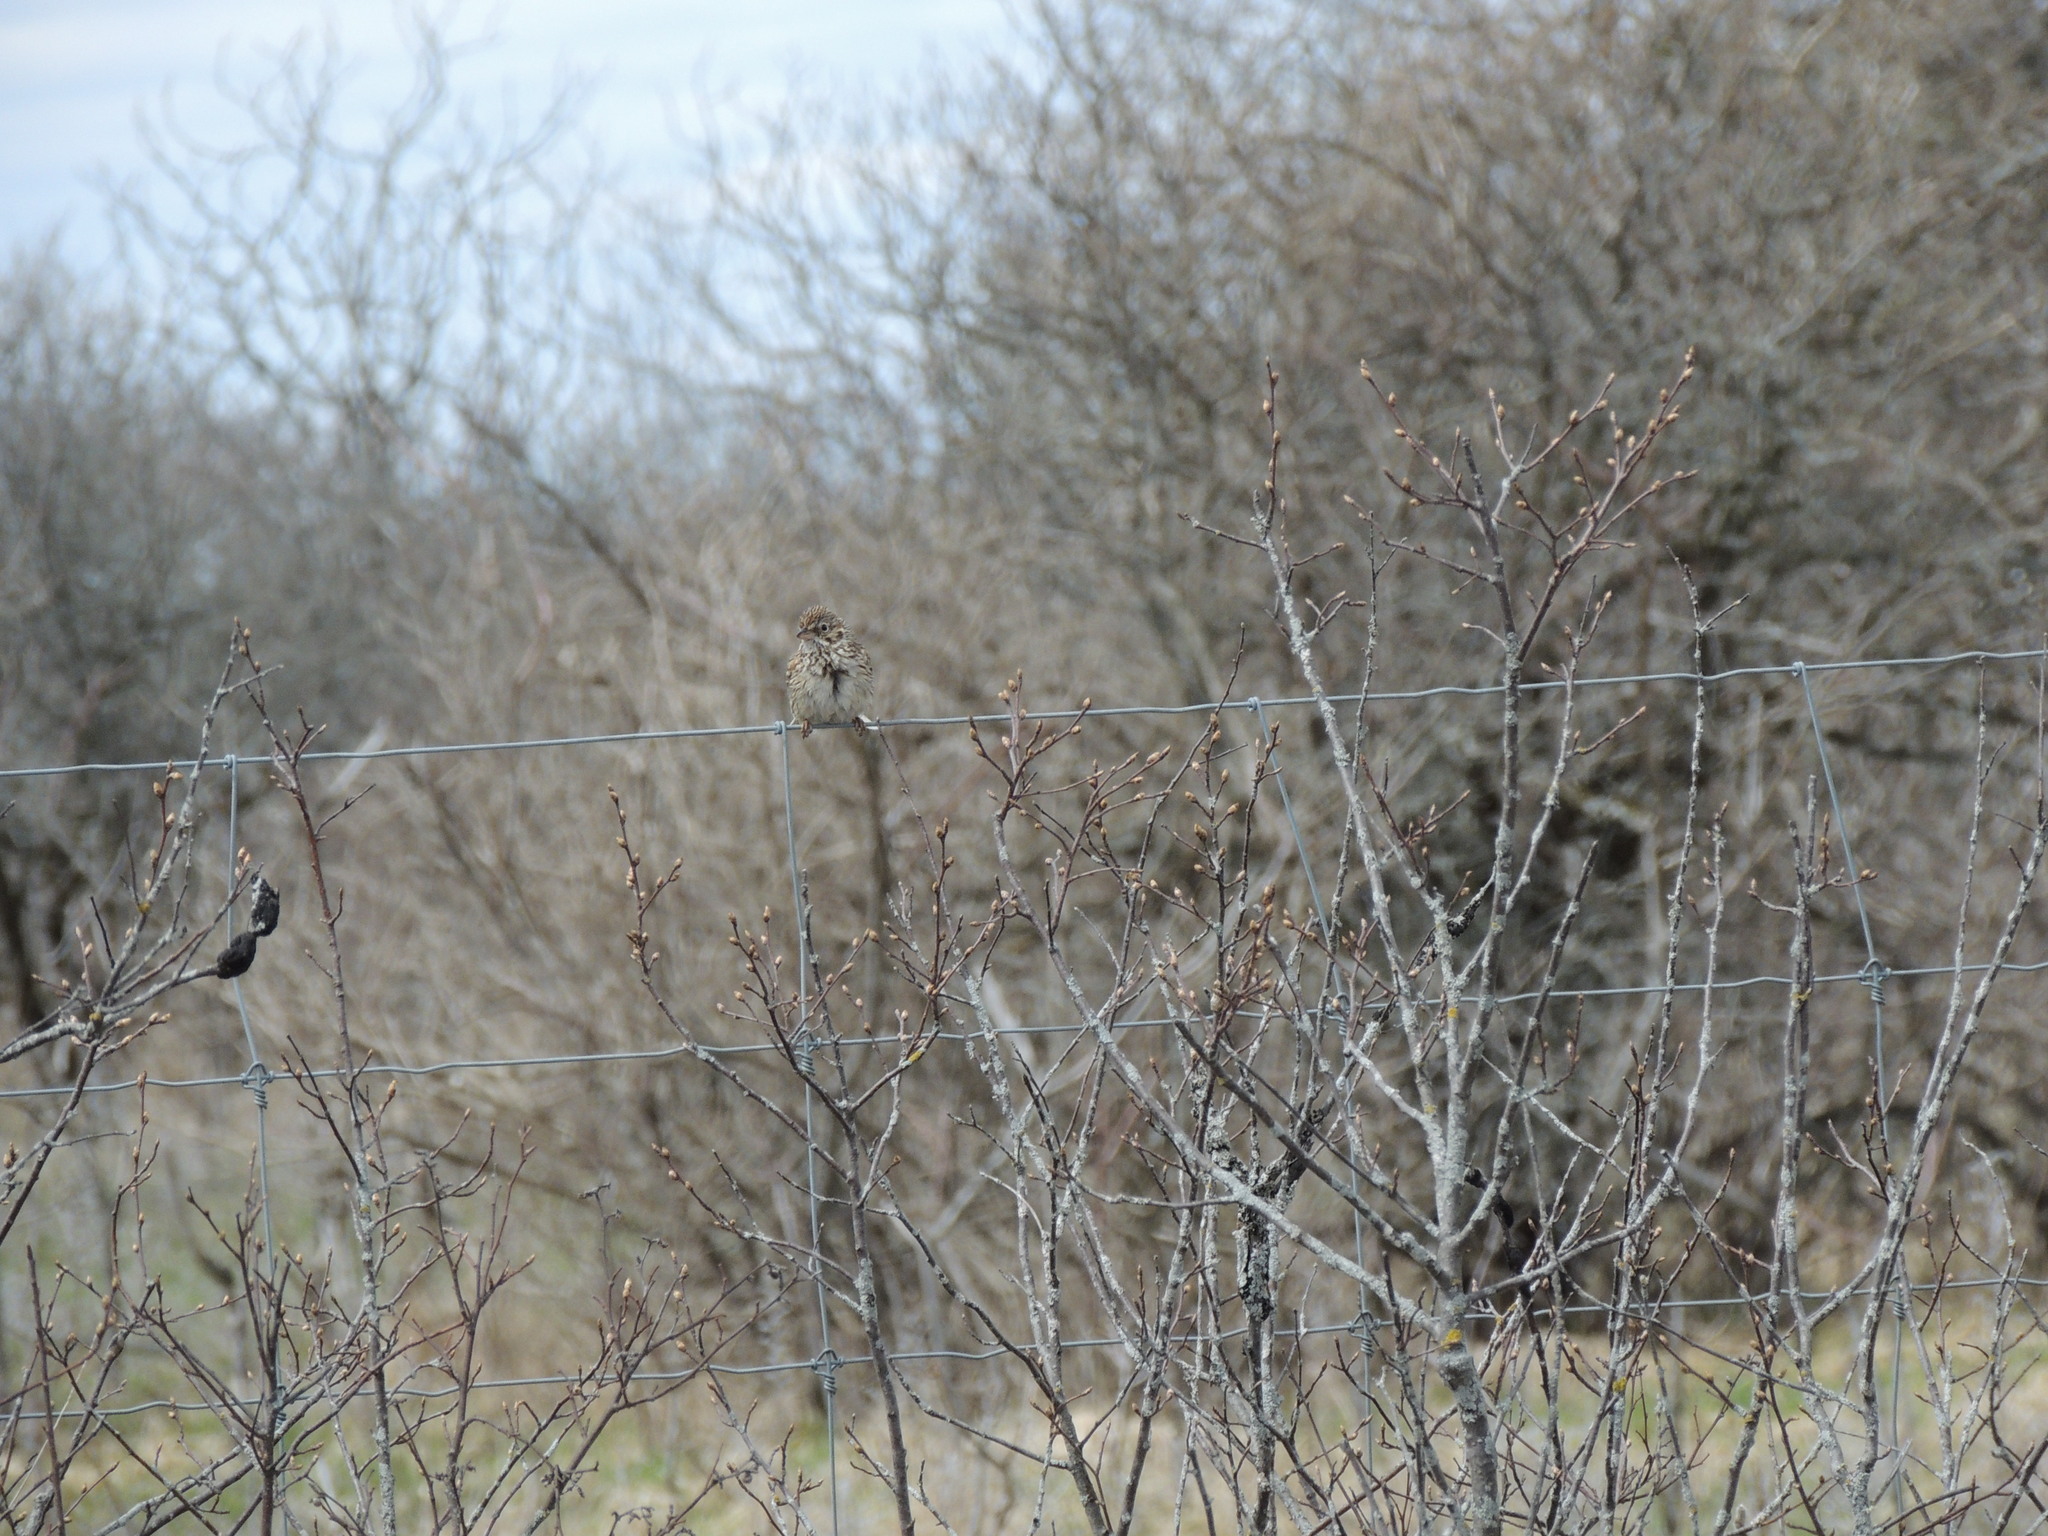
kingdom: Animalia
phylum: Chordata
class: Aves
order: Passeriformes
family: Passerellidae
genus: Pooecetes
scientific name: Pooecetes gramineus
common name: Vesper sparrow
